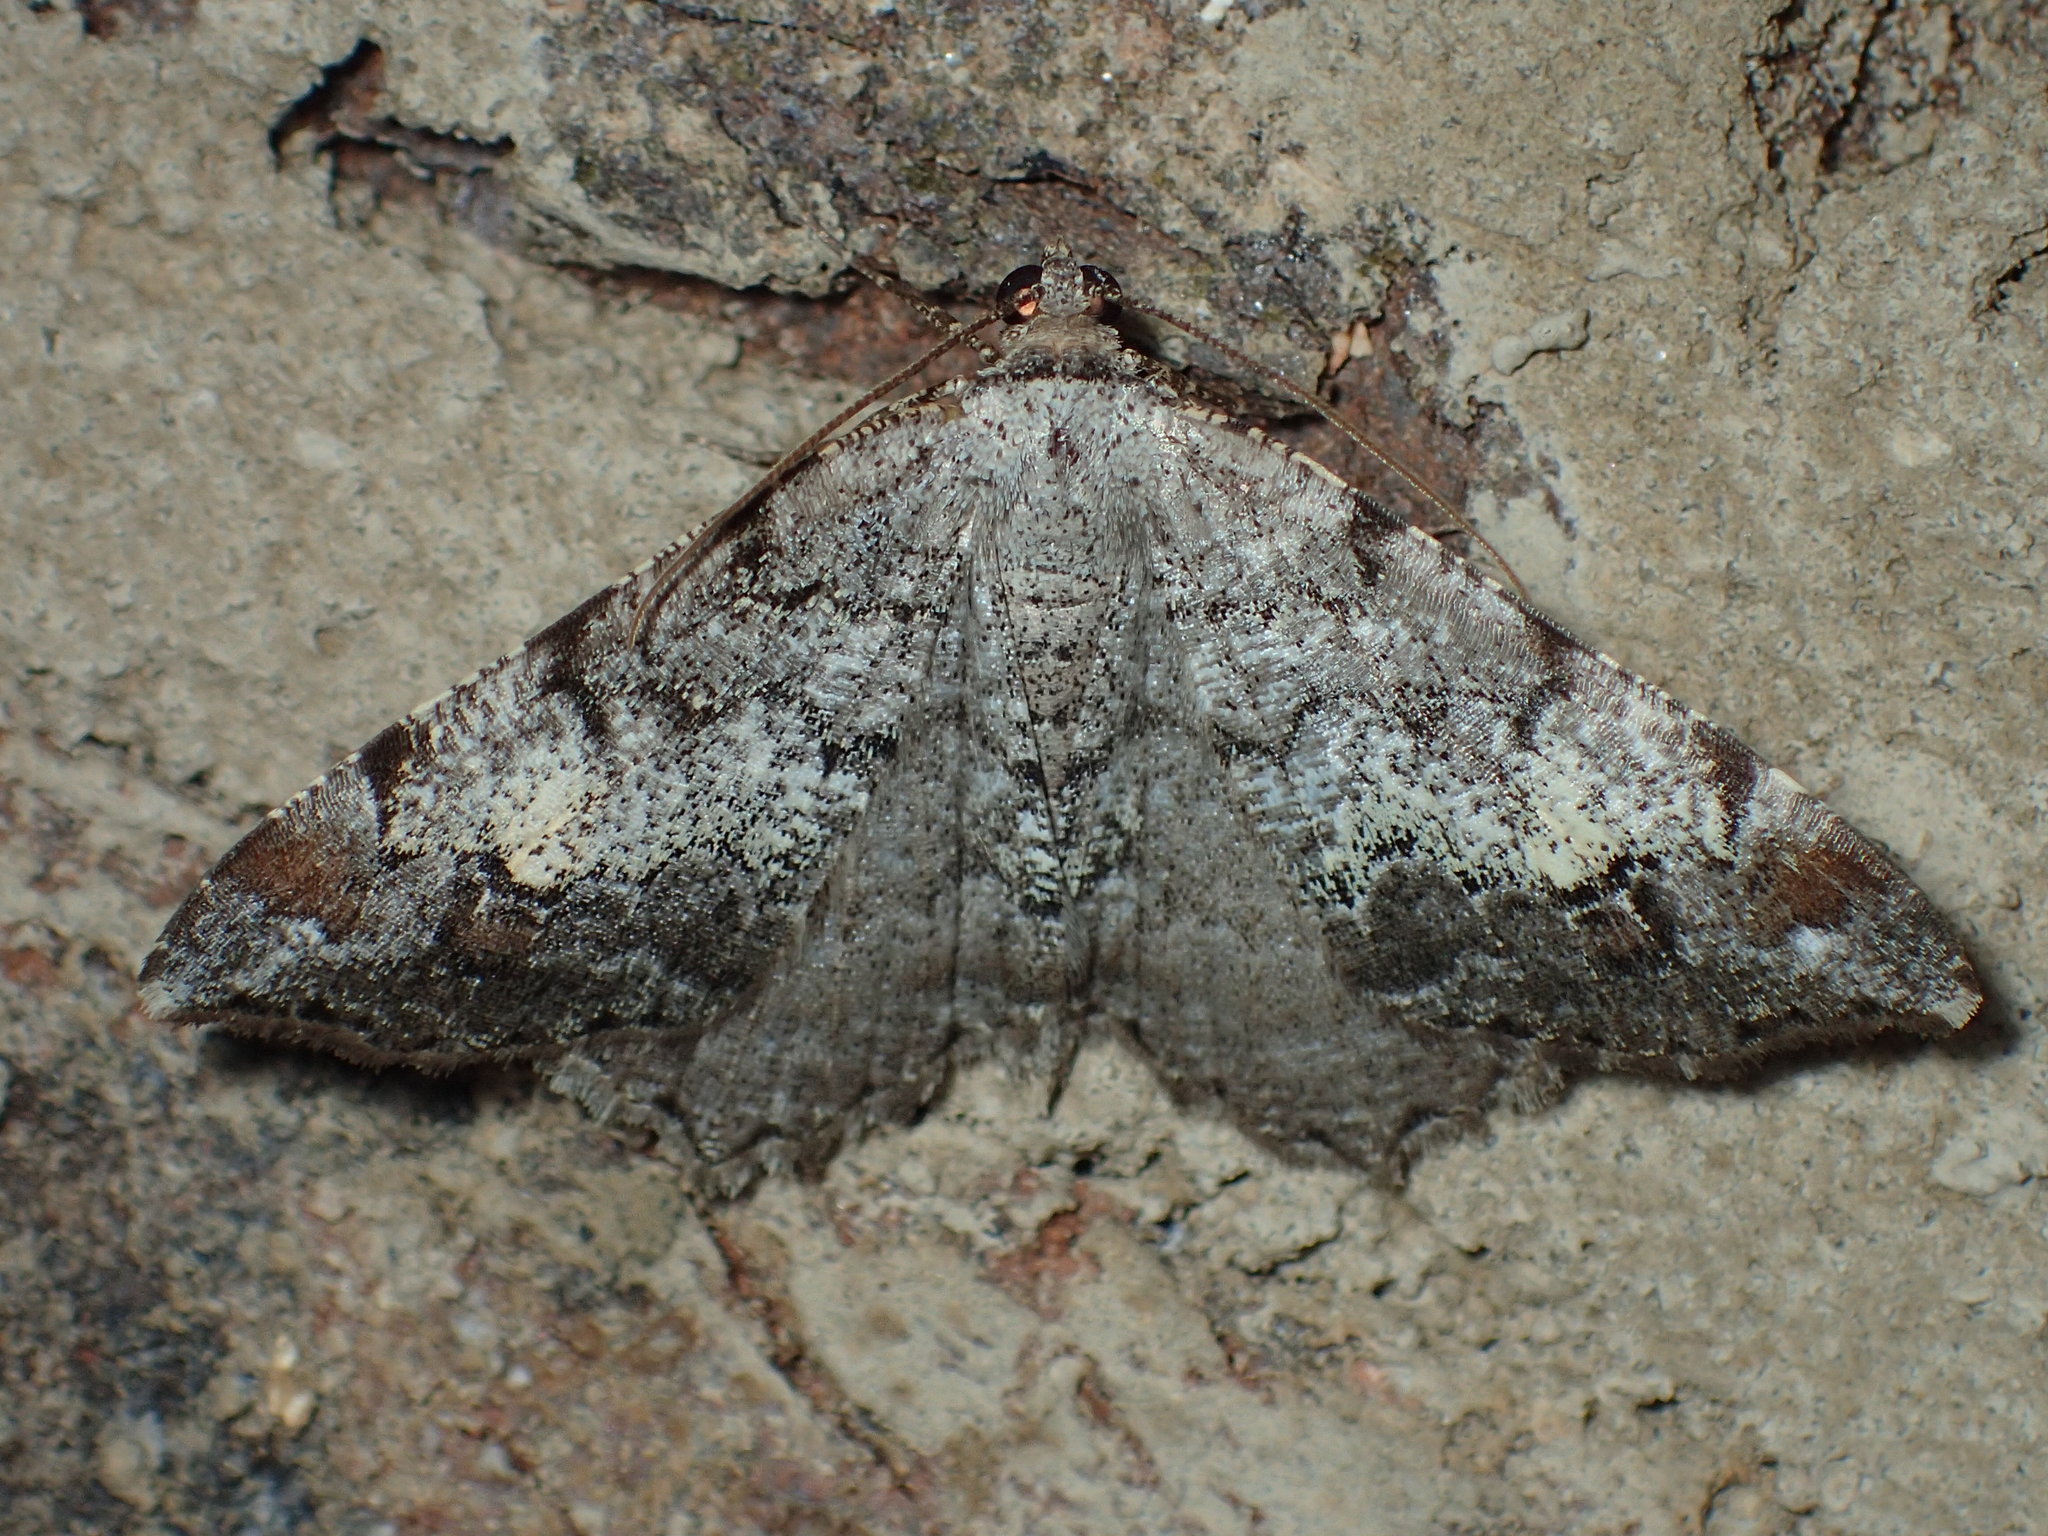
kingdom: Animalia
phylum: Arthropoda
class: Insecta
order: Lepidoptera
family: Geometridae
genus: Macaria
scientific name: Macaria granitata
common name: Granite moth
